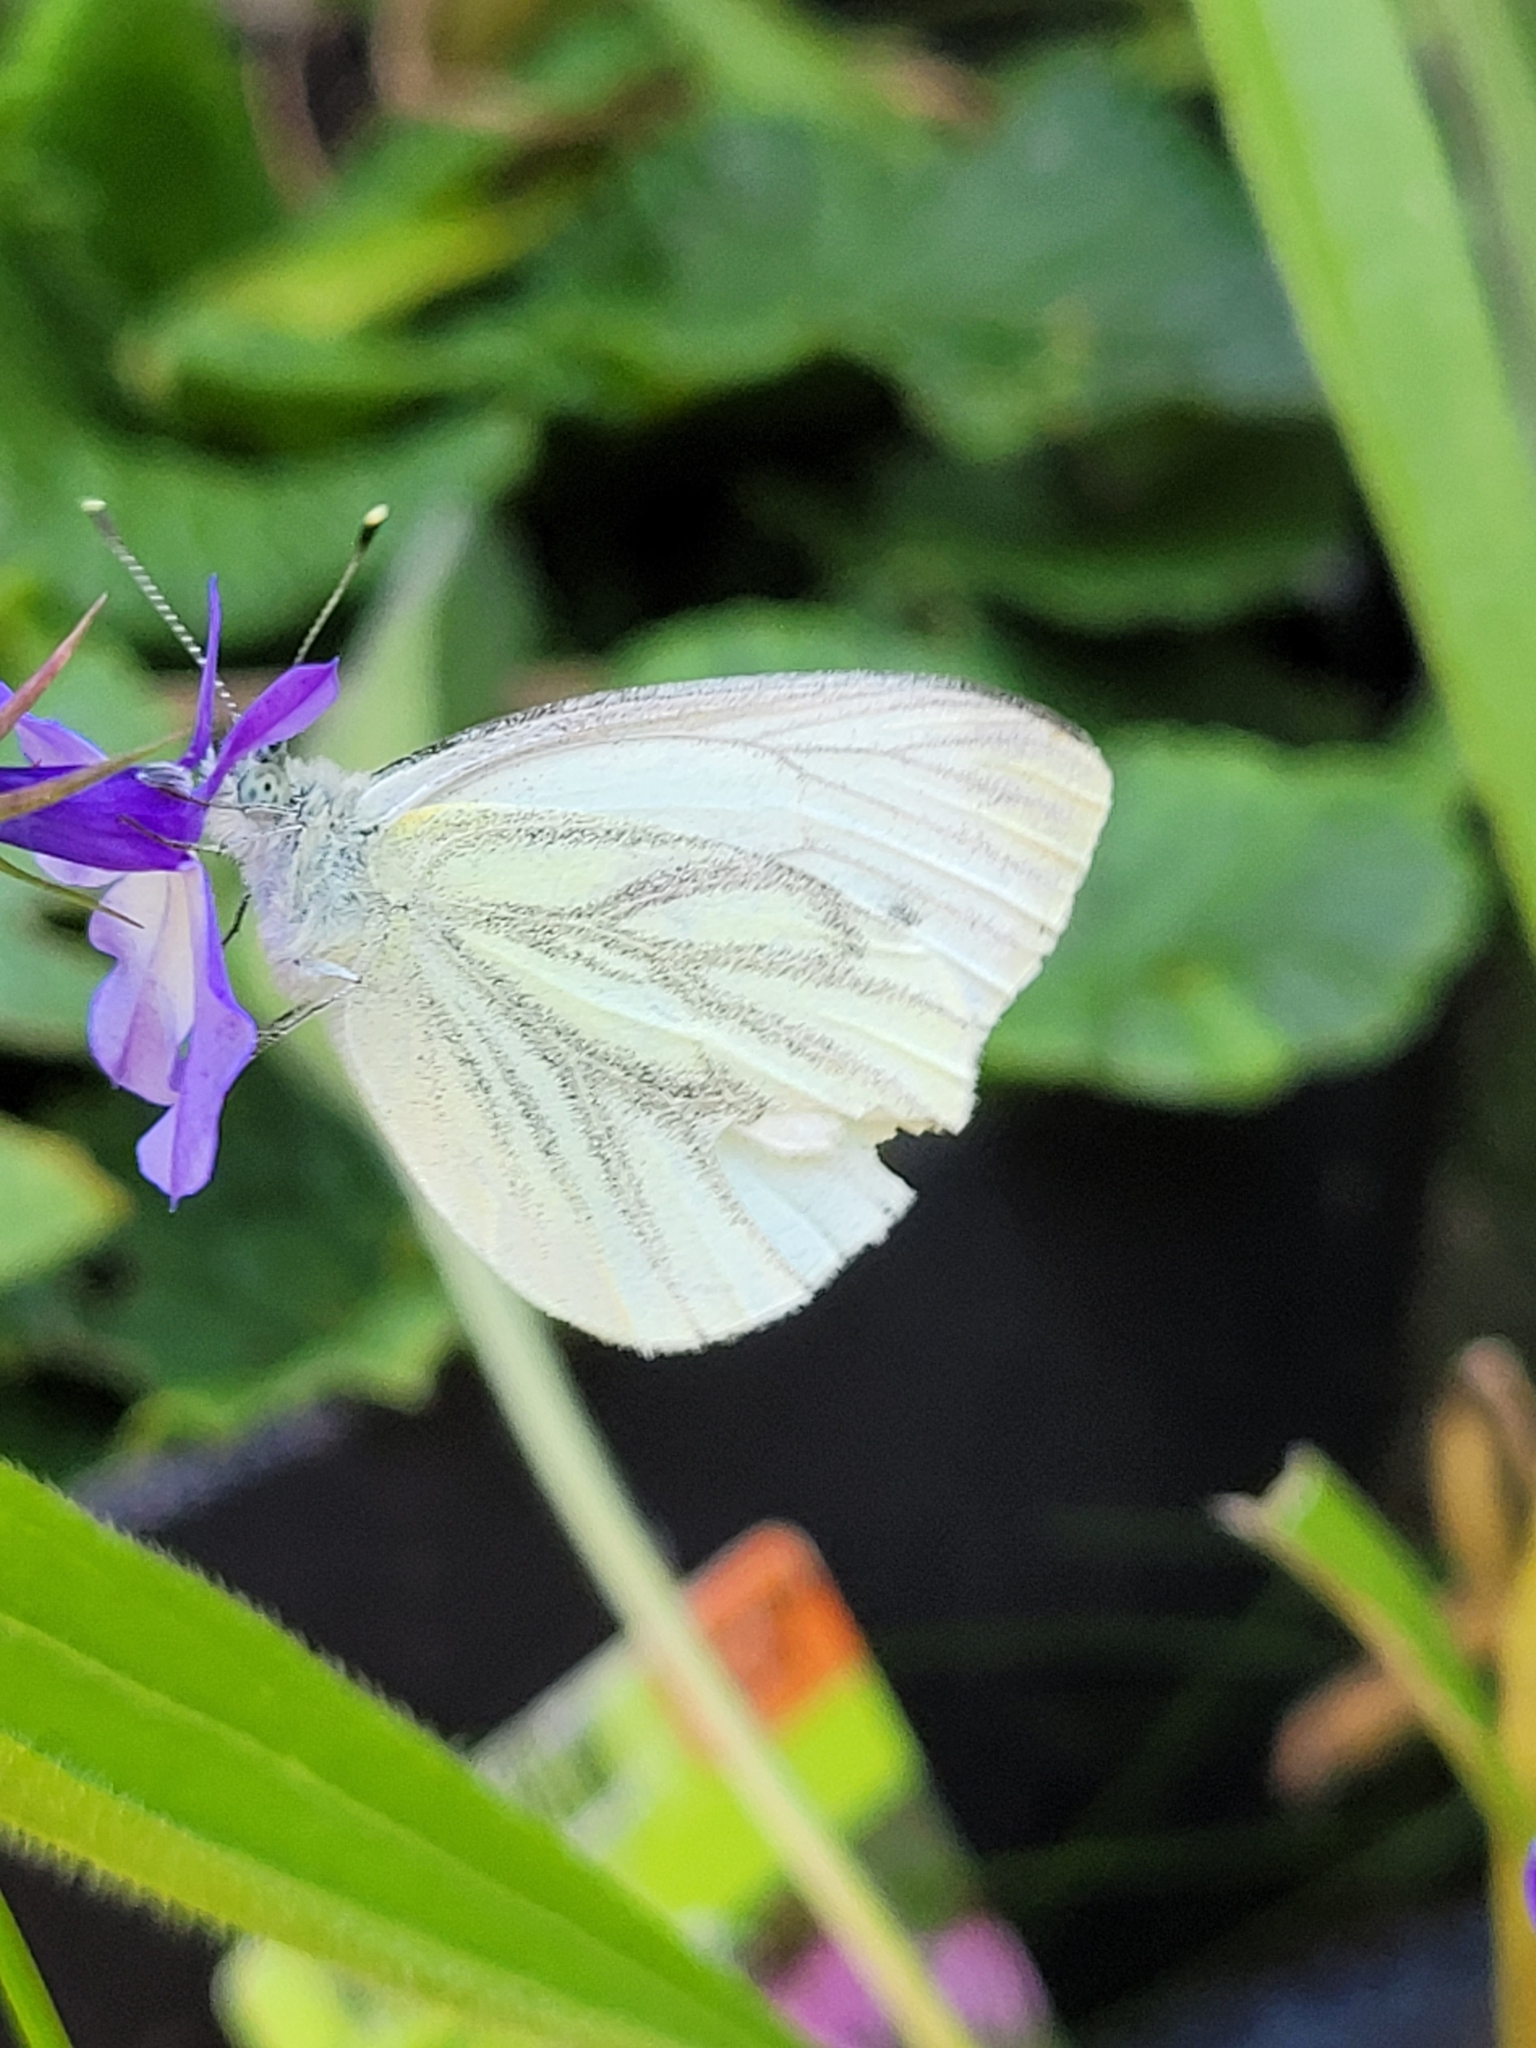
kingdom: Animalia
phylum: Arthropoda
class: Insecta
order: Lepidoptera
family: Pieridae
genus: Pieris
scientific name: Pieris napi
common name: Green-veined white
